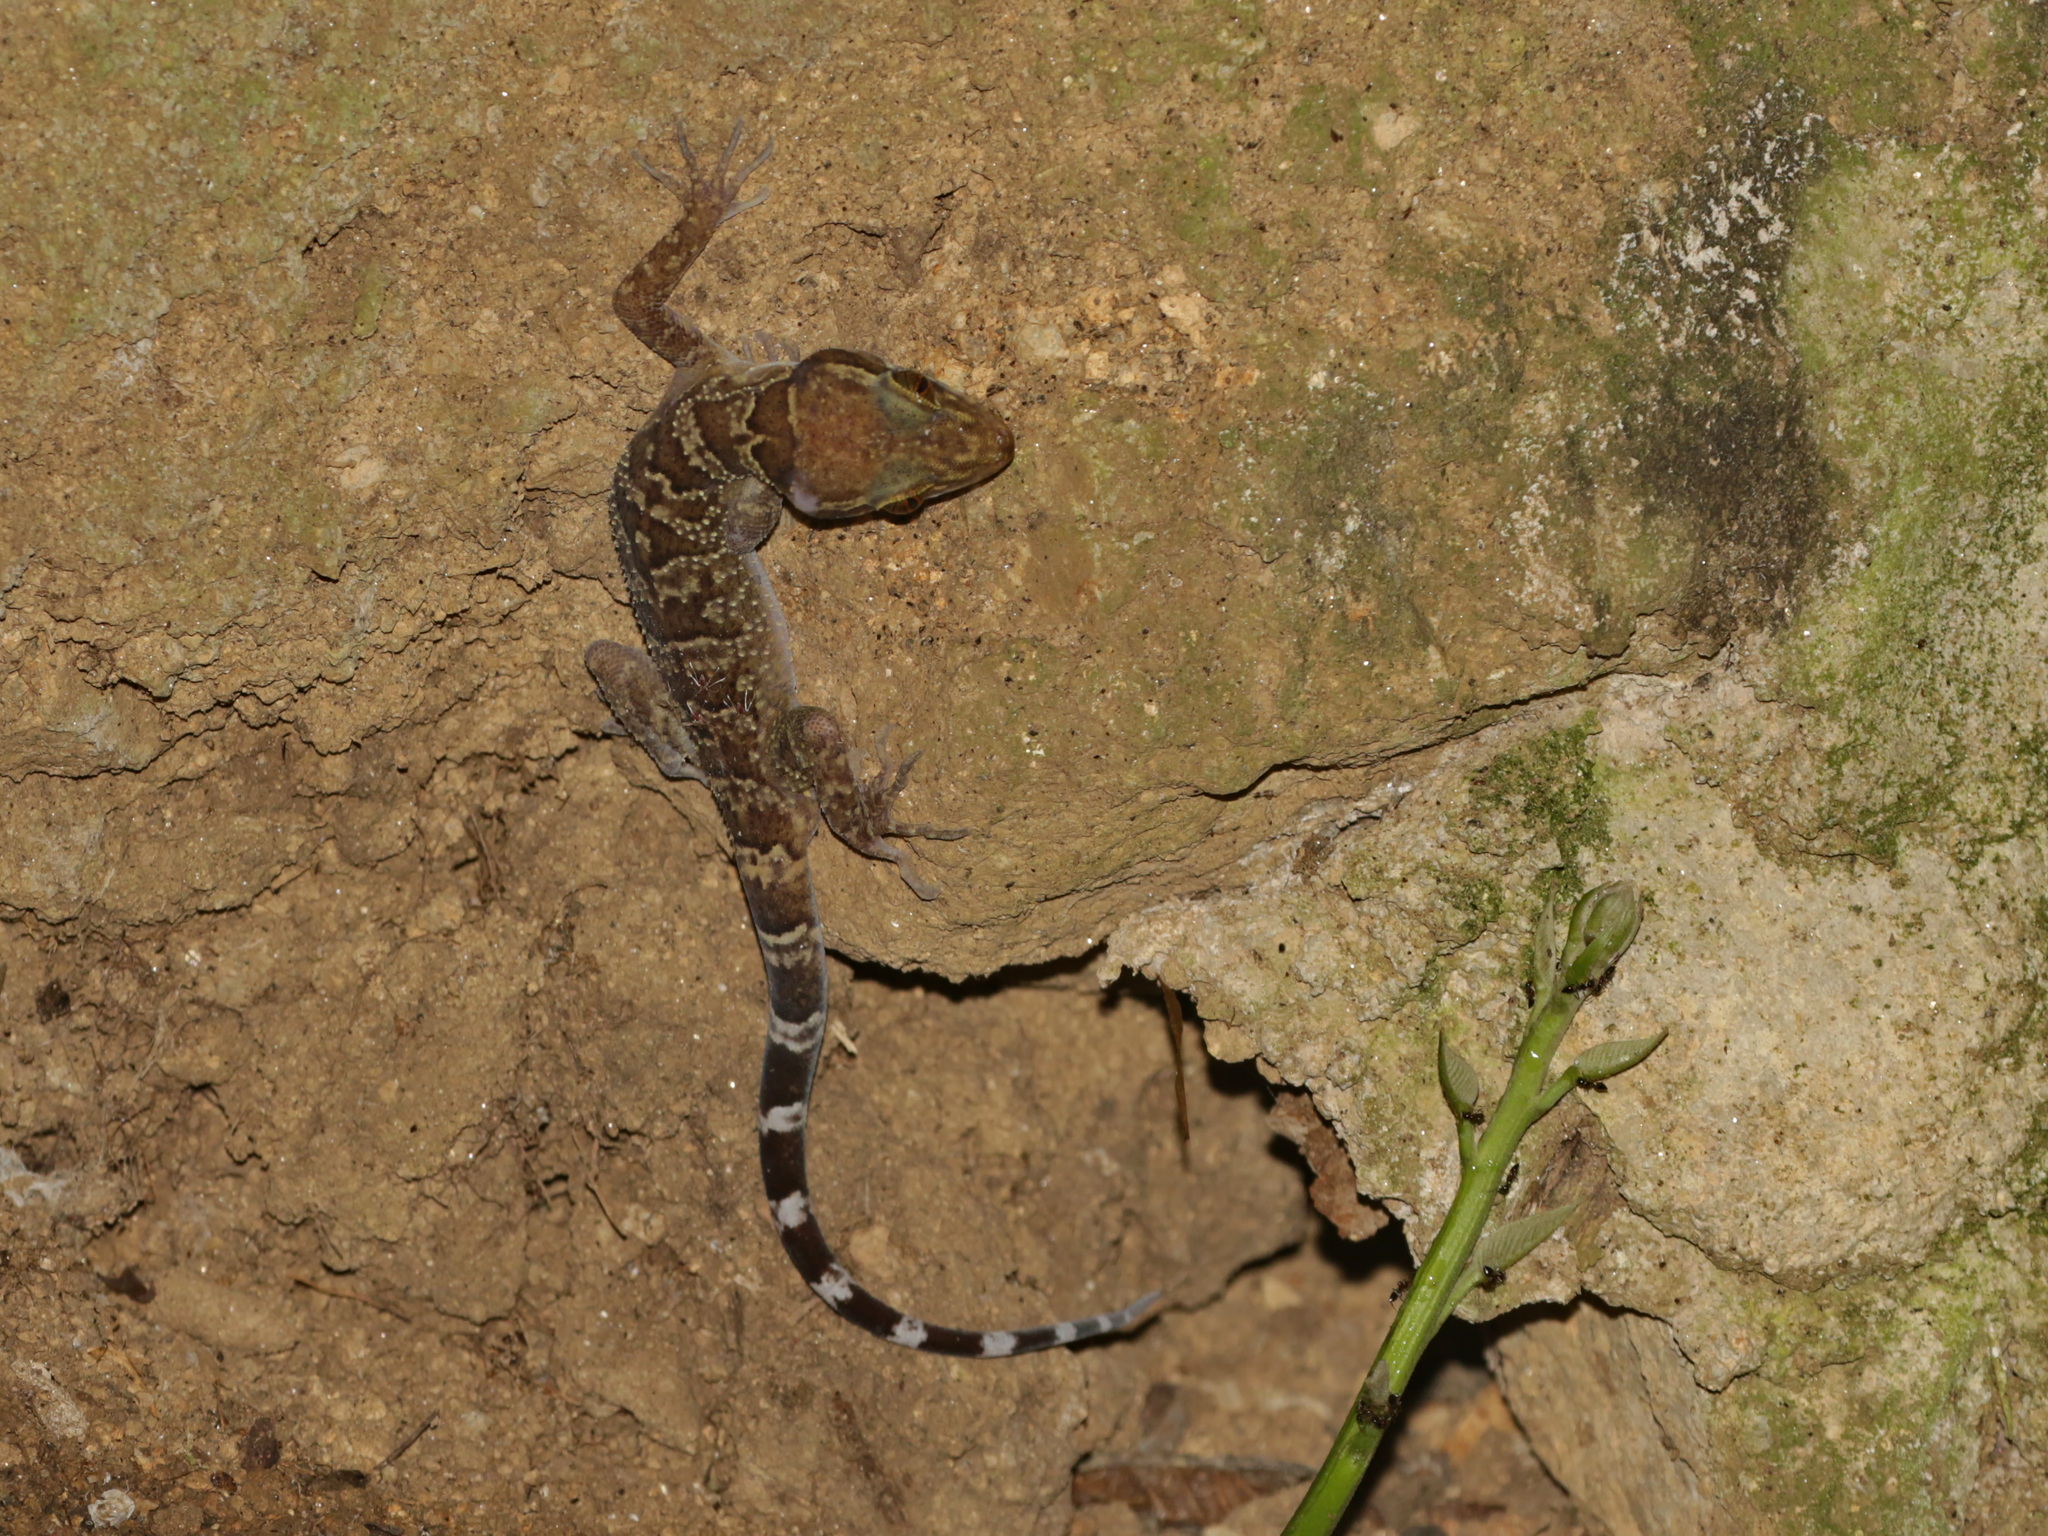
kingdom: Animalia
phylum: Chordata
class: Squamata
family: Gekkonidae
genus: Cyrtodactylus
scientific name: Cyrtodactylus maelanoi
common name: Mae la noi bent-toed gecko
